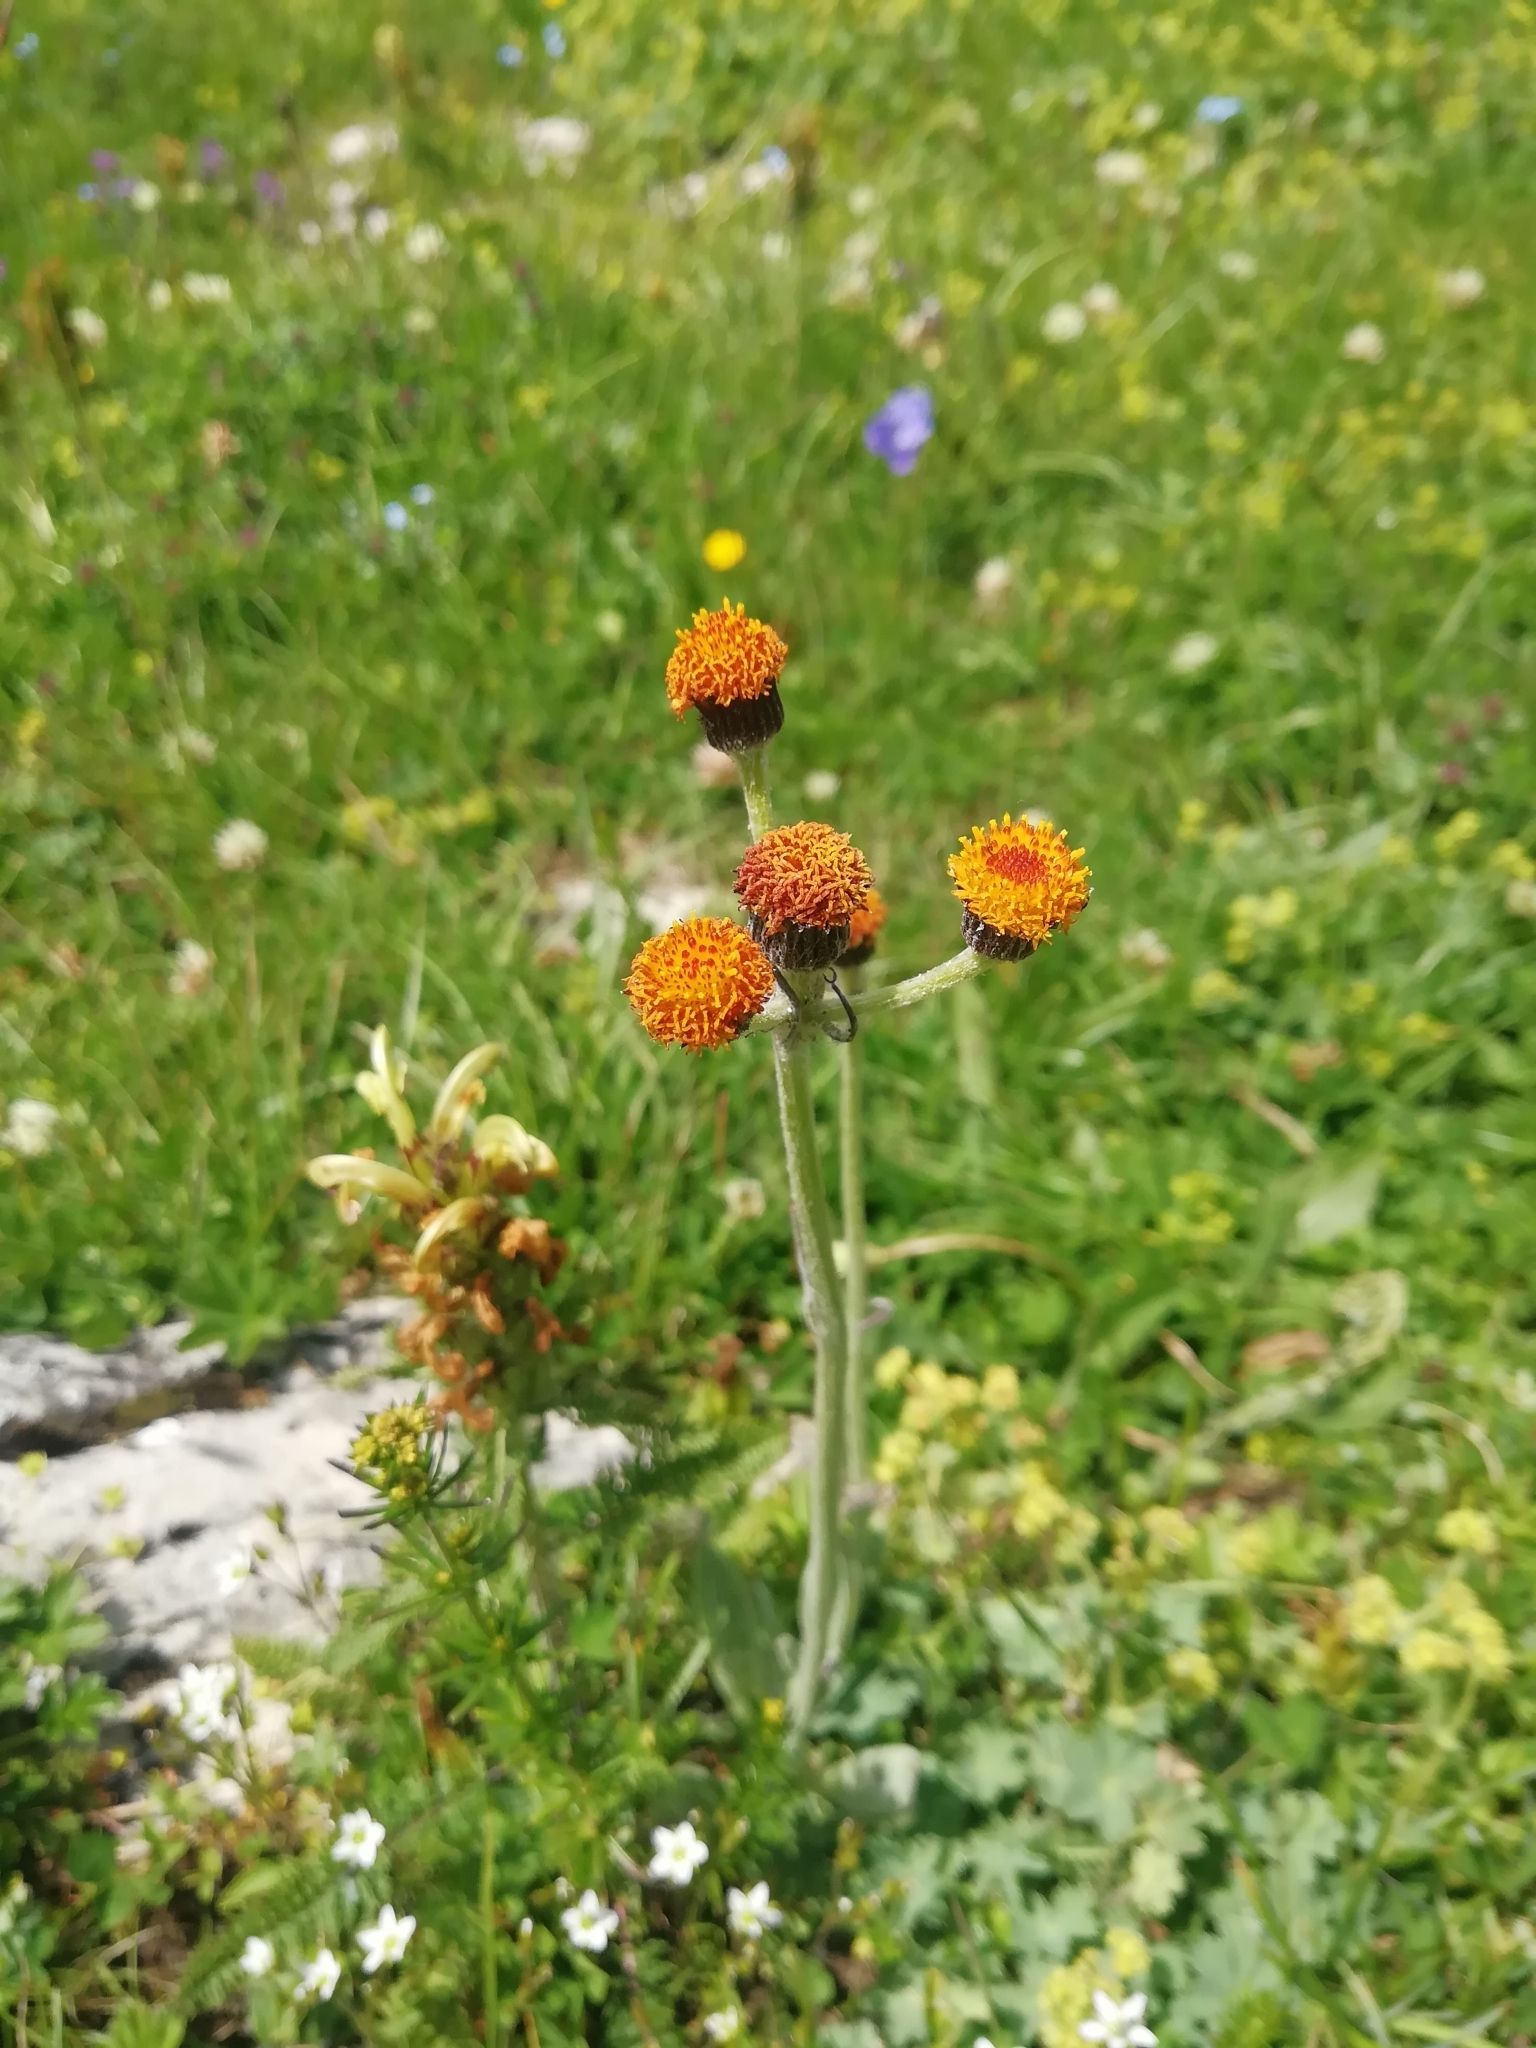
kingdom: Plantae
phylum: Tracheophyta
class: Magnoliopsida
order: Asterales
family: Asteraceae
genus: Tephroseris
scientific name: Tephroseris integrifolia
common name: Field fleawort
